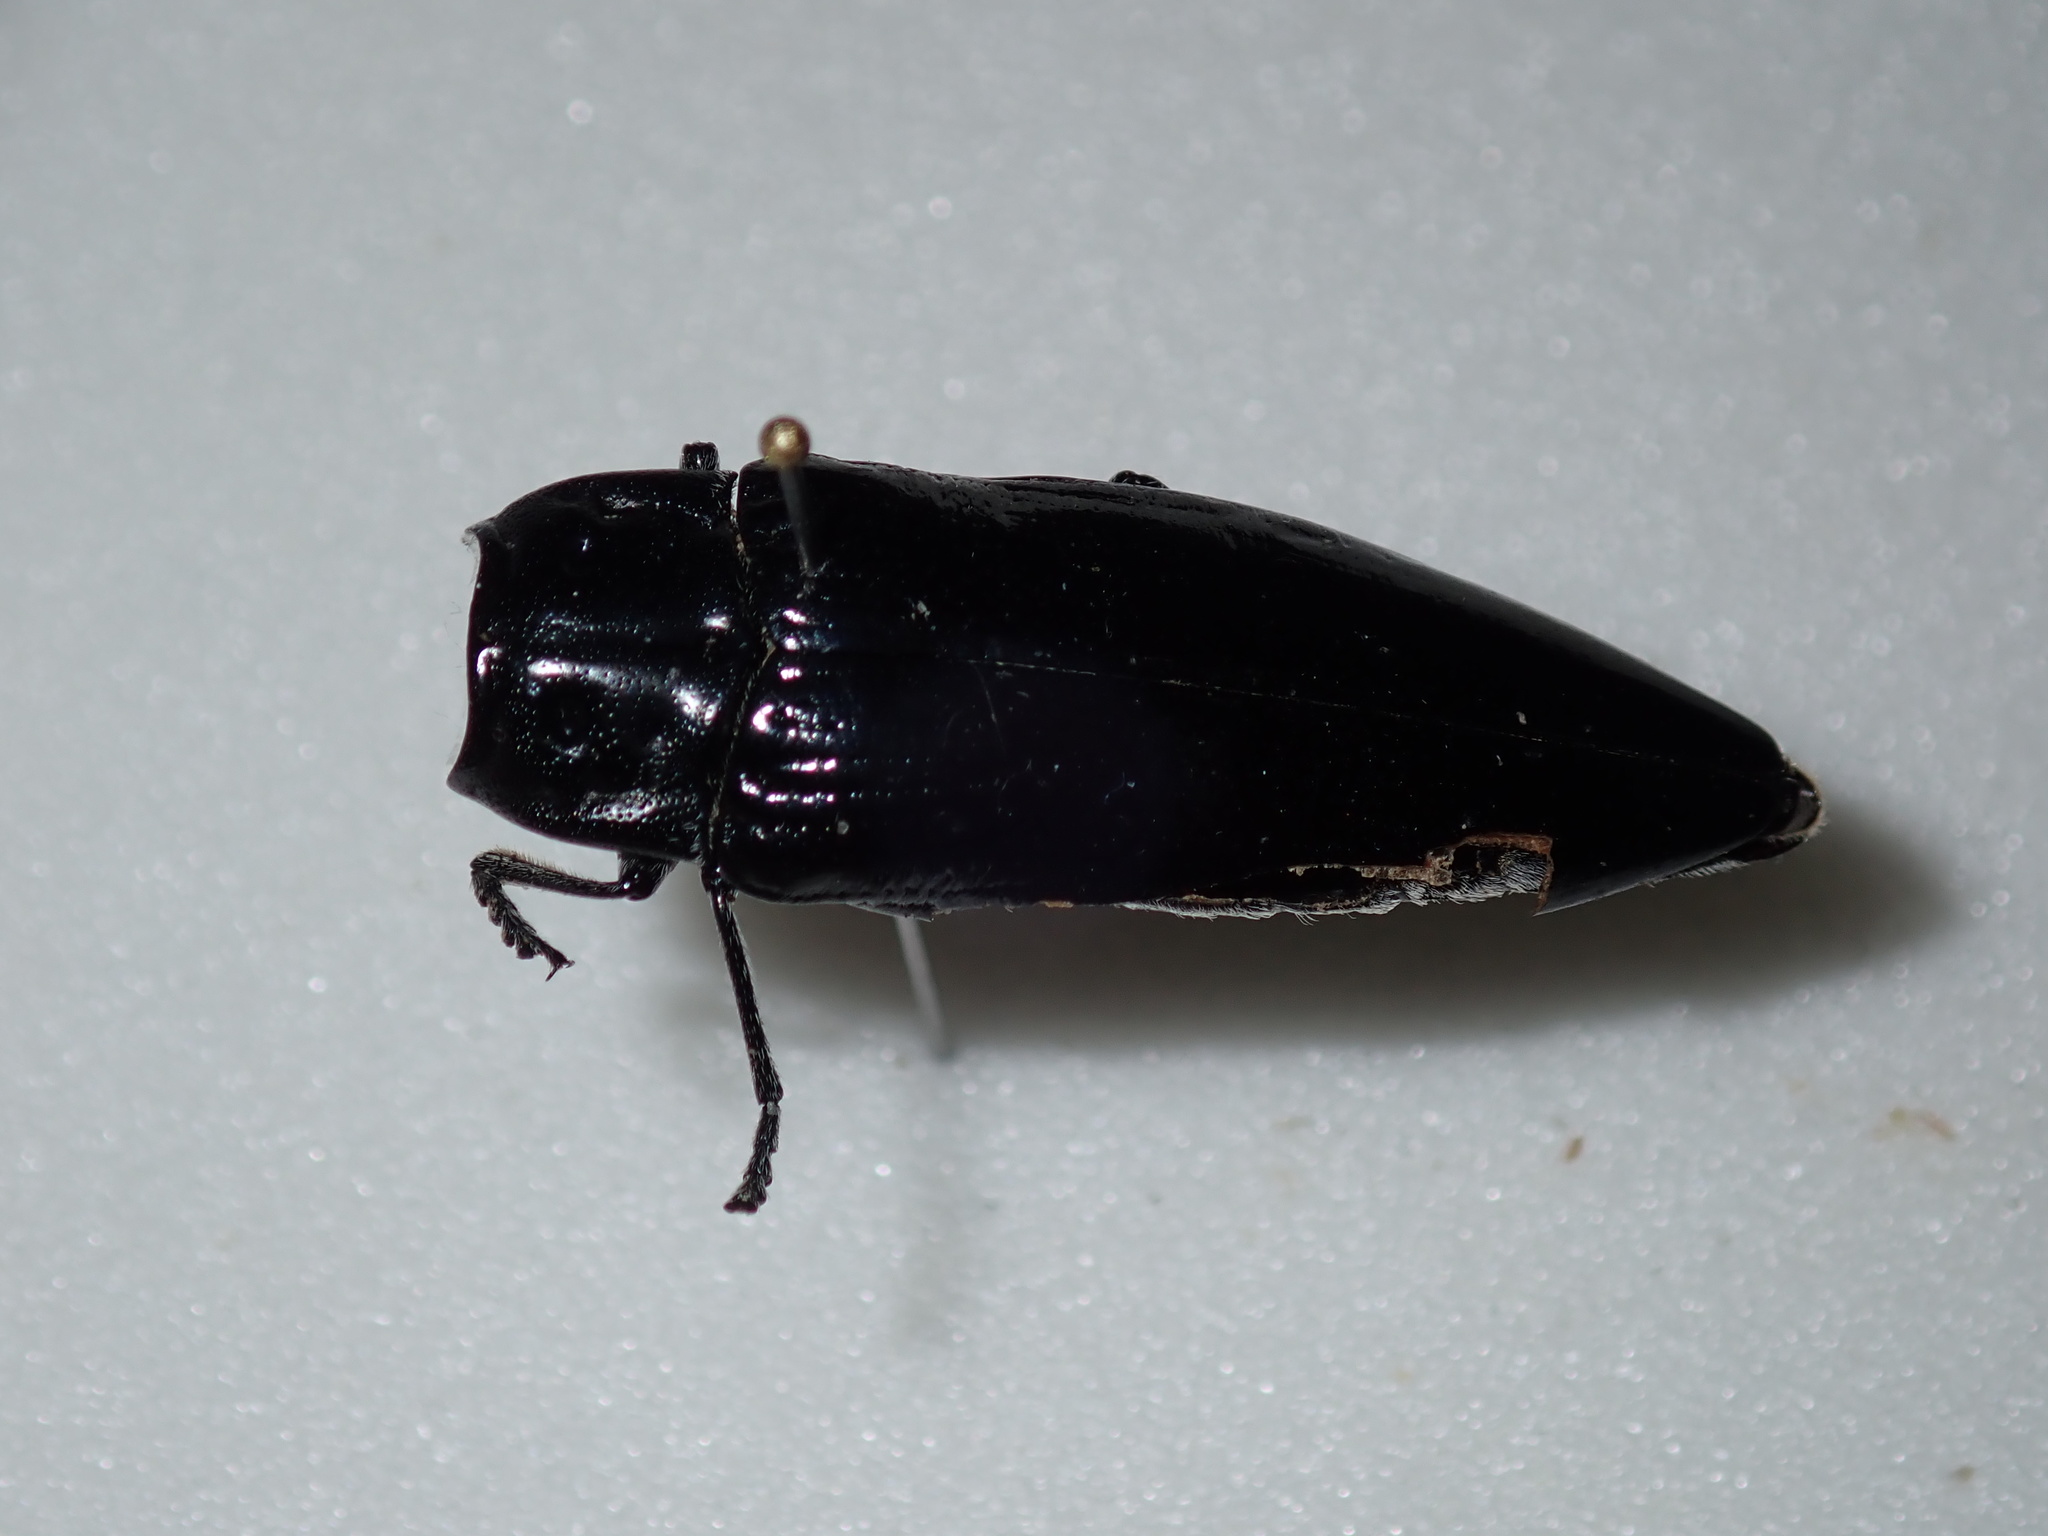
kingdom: Animalia
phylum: Arthropoda
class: Insecta
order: Coleoptera
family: Buprestidae
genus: Cyrioides
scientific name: Cyrioides australis
